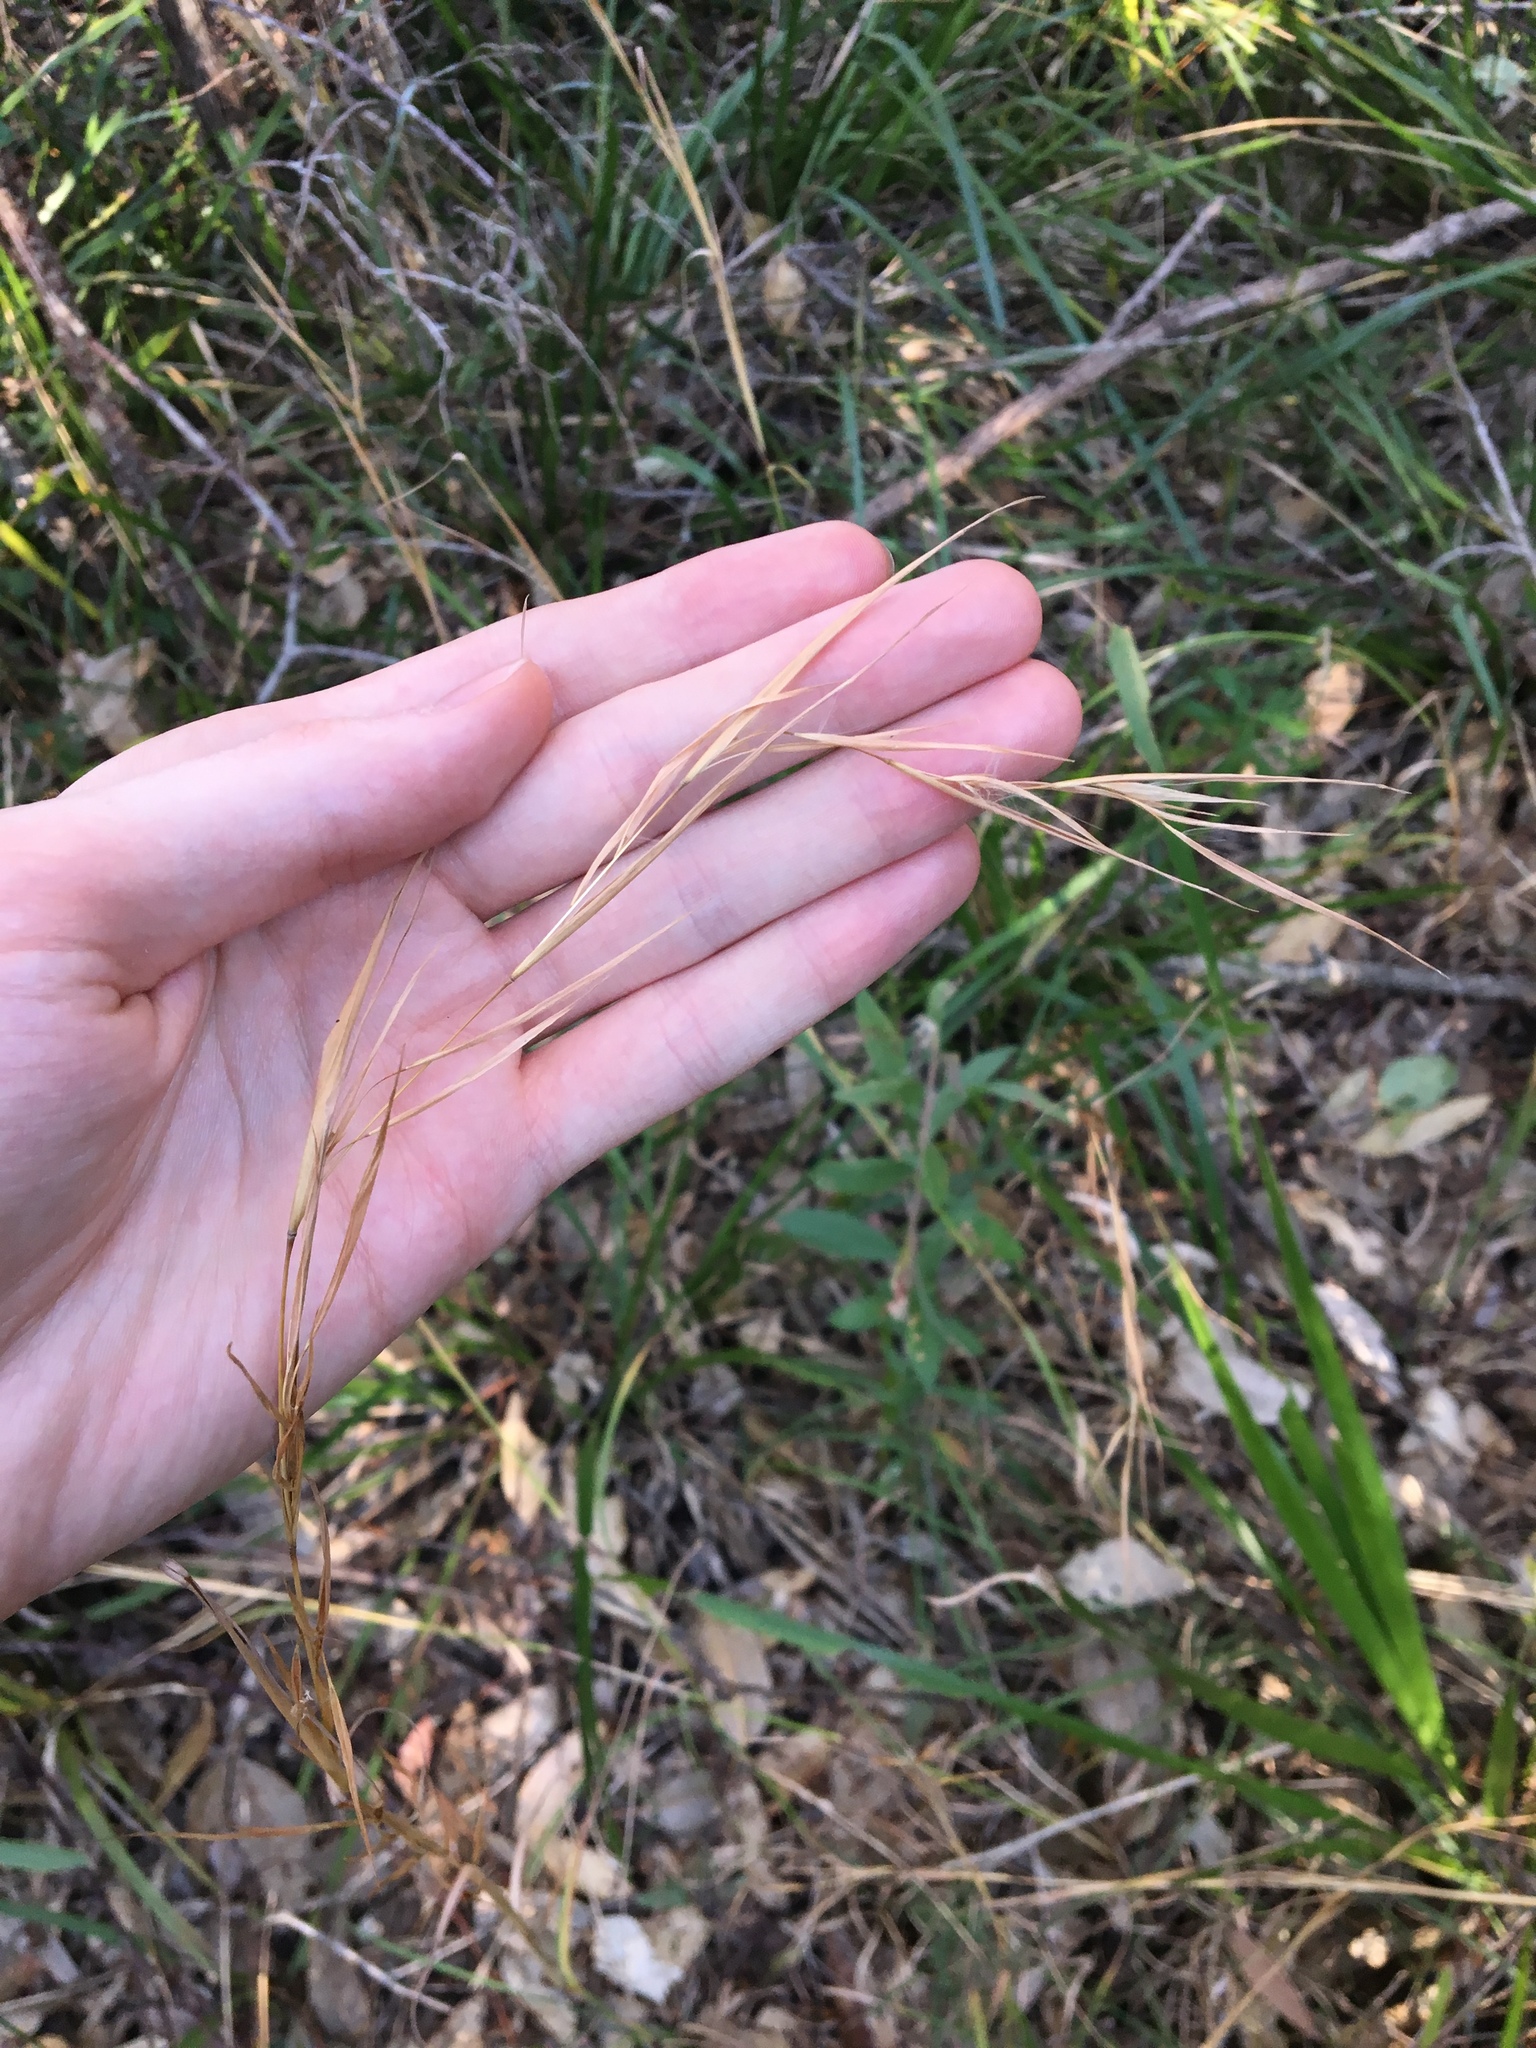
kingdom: Plantae
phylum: Tracheophyta
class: Liliopsida
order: Poales
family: Poaceae
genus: Andropogon
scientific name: Andropogon virginicus
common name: Broomsedge bluestem
